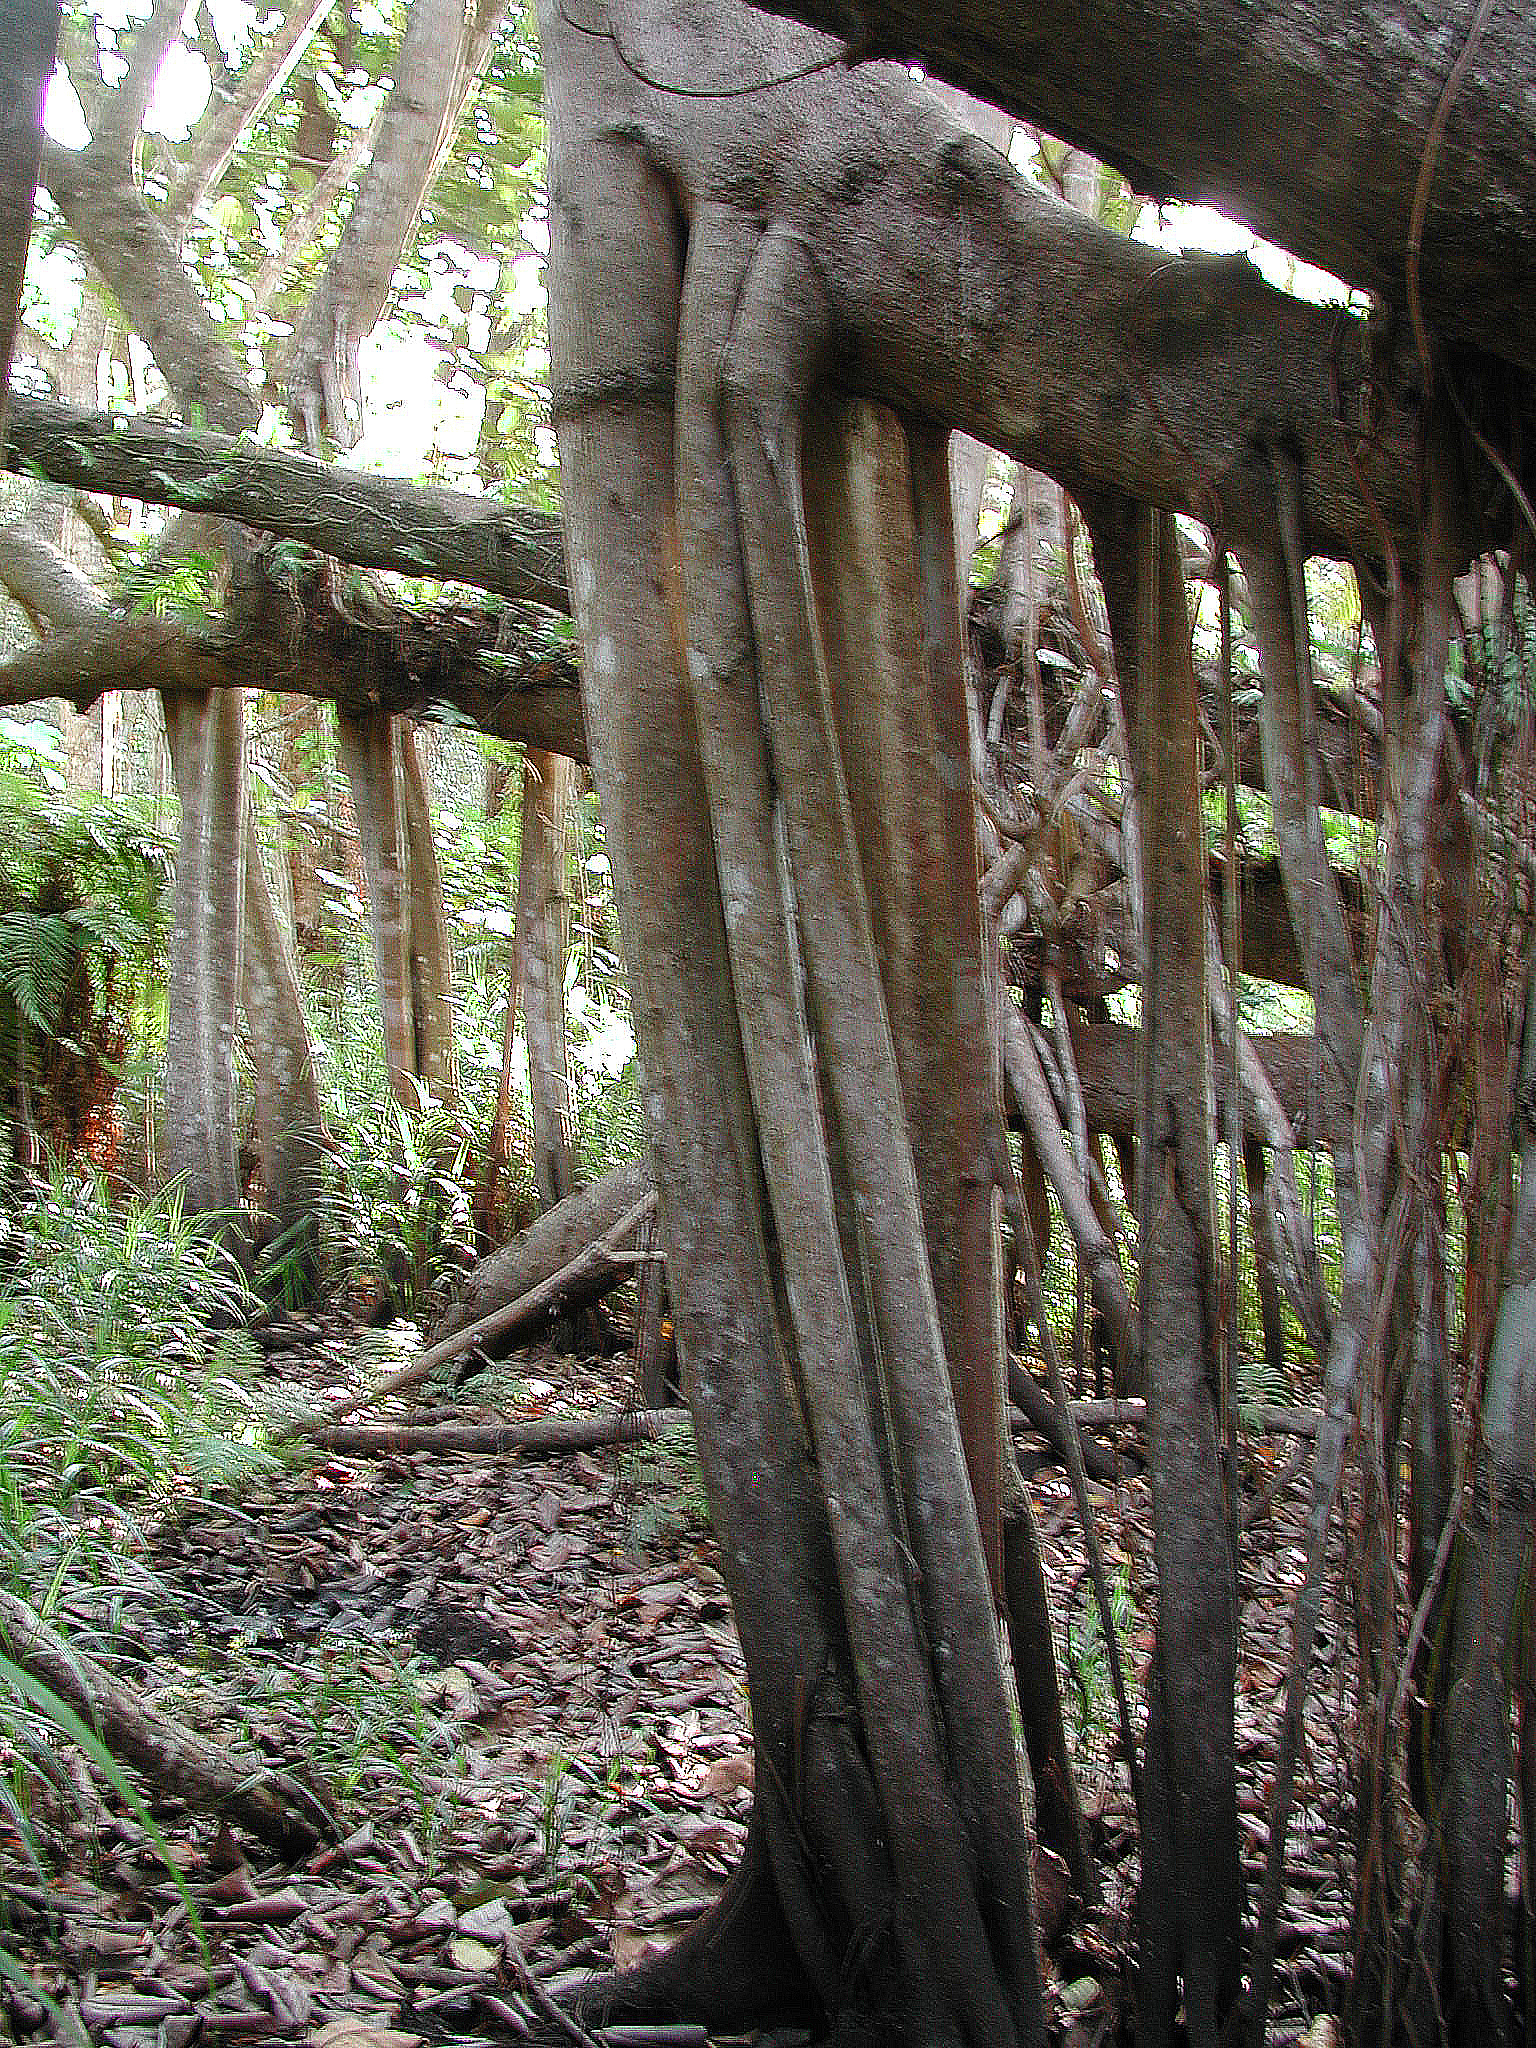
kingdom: Plantae
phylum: Tracheophyta
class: Magnoliopsida
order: Rosales
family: Moraceae
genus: Ficus
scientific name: Ficus trichopoda
